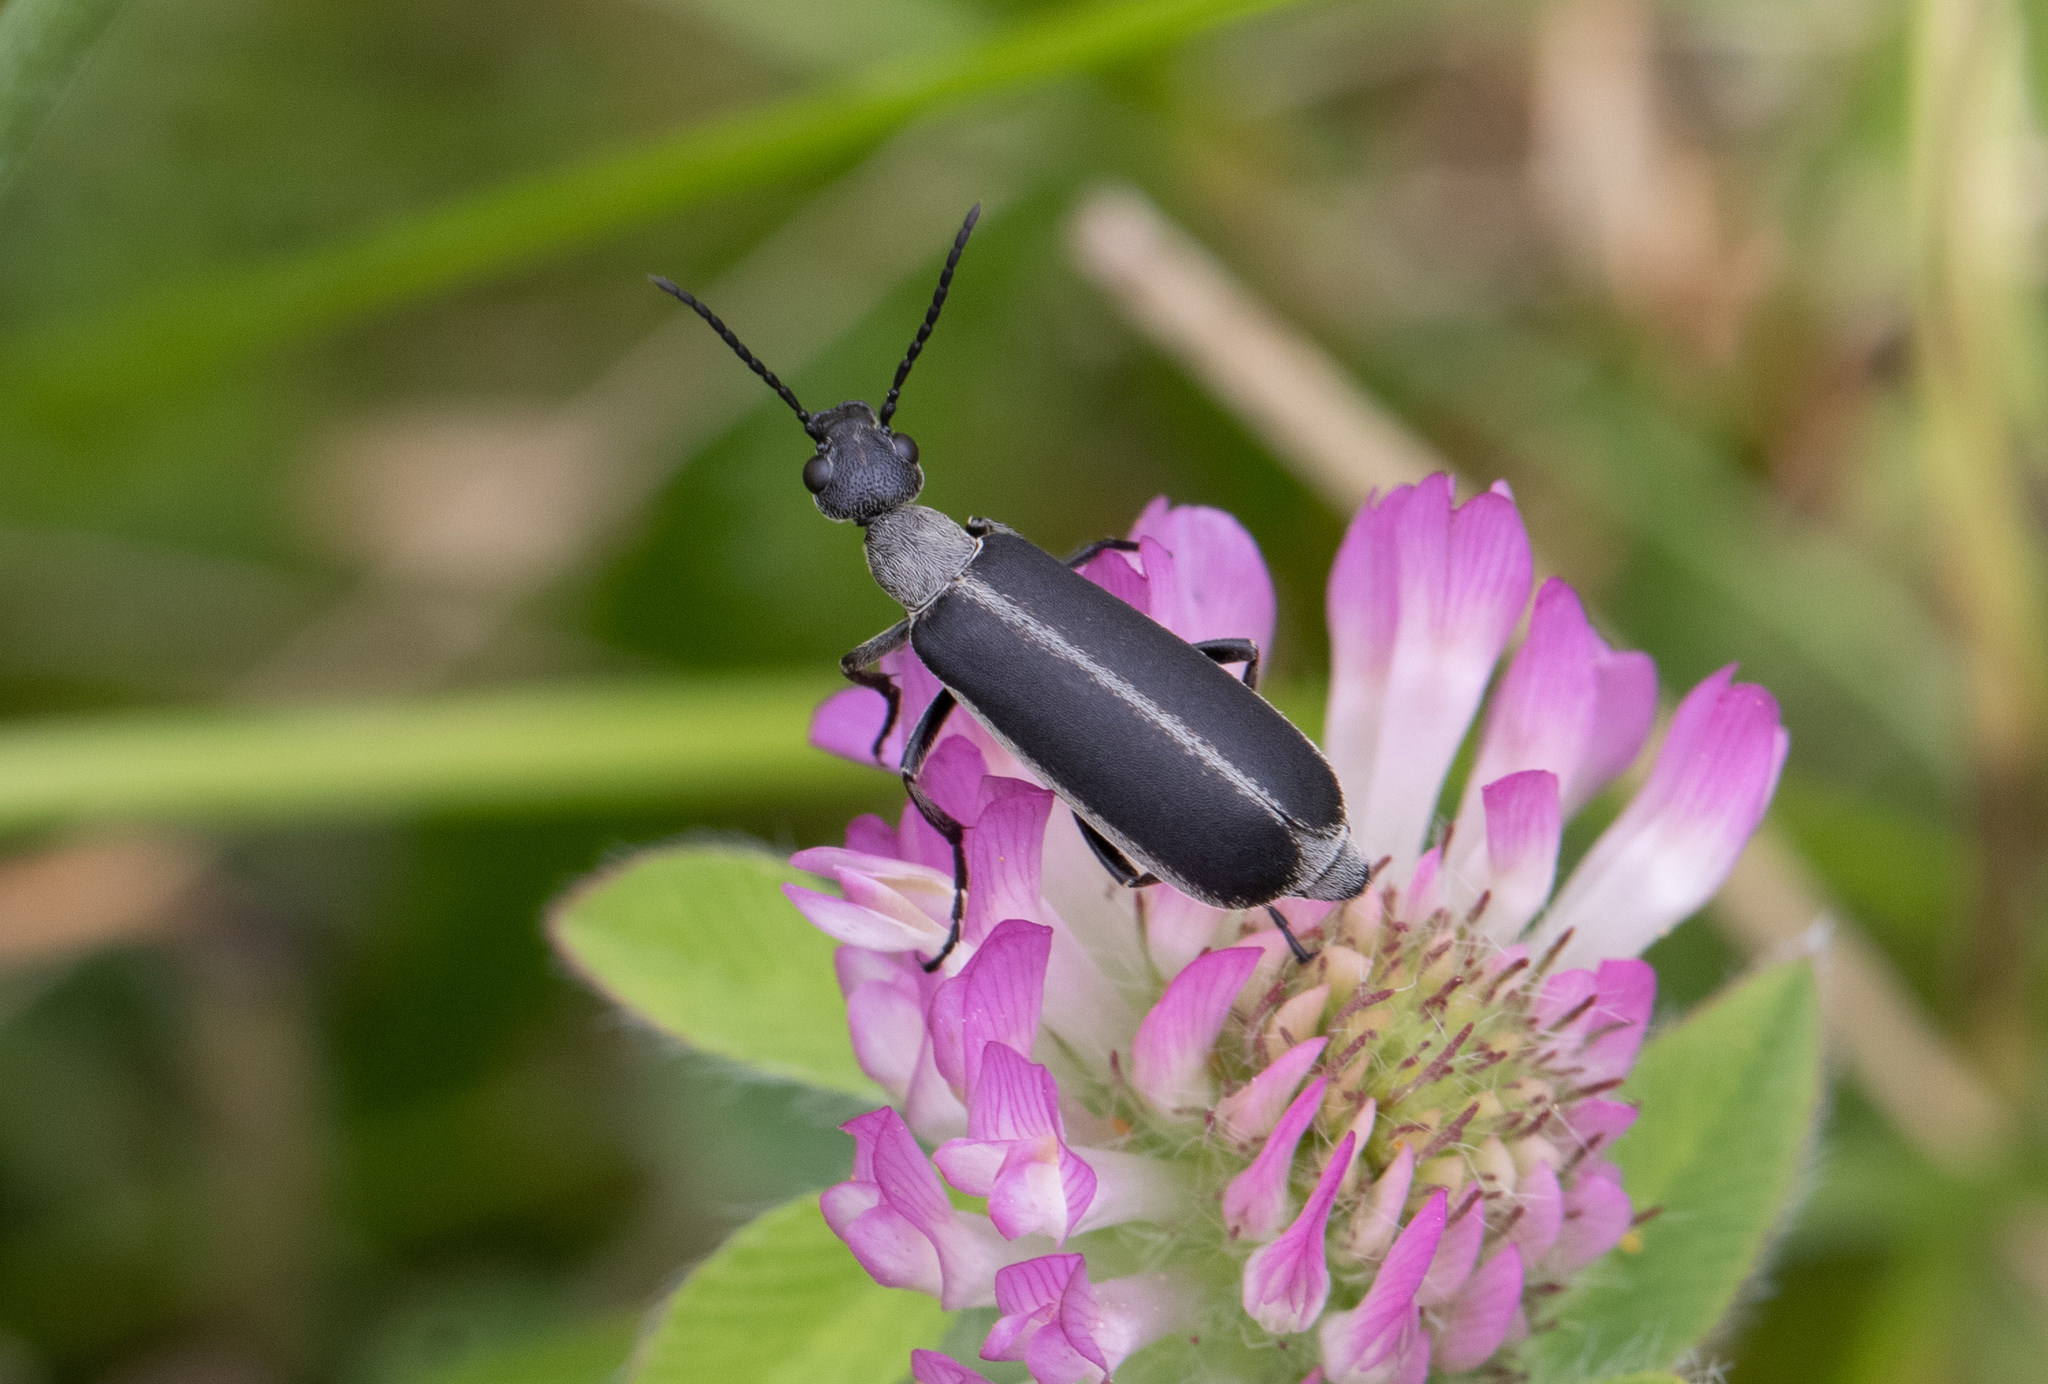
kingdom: Animalia
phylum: Arthropoda
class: Insecta
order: Coleoptera
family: Meloidae
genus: Epicauta
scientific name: Epicauta atrata
